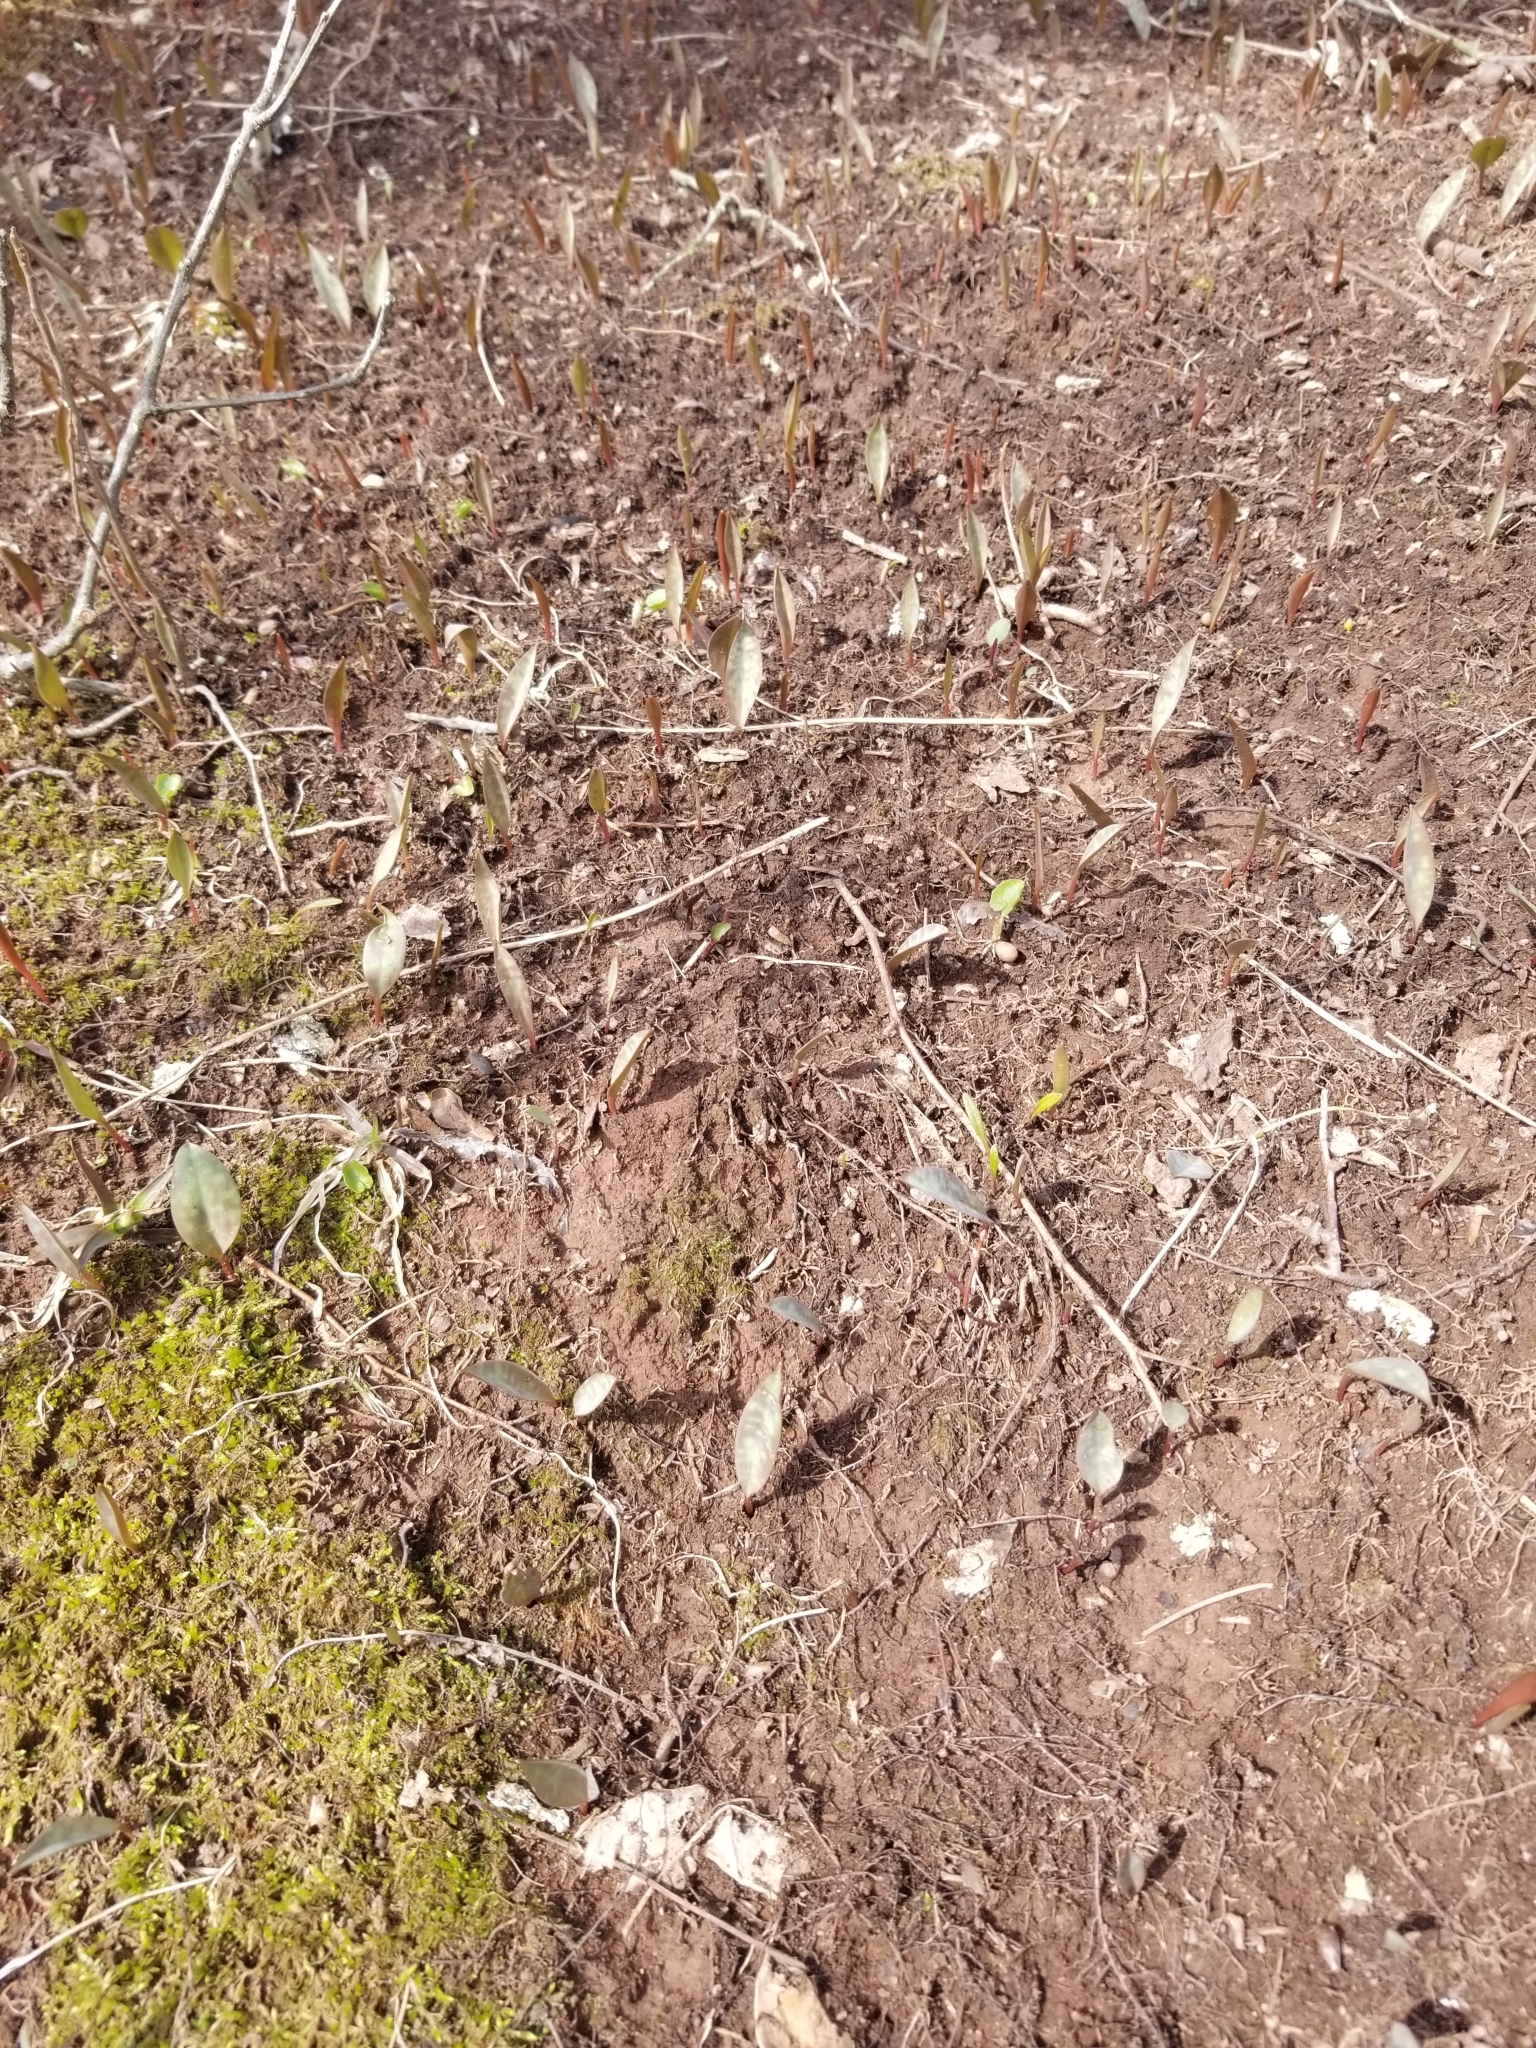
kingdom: Plantae
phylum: Tracheophyta
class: Liliopsida
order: Liliales
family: Liliaceae
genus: Erythronium
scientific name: Erythronium americanum
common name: Yellow adder's-tongue
